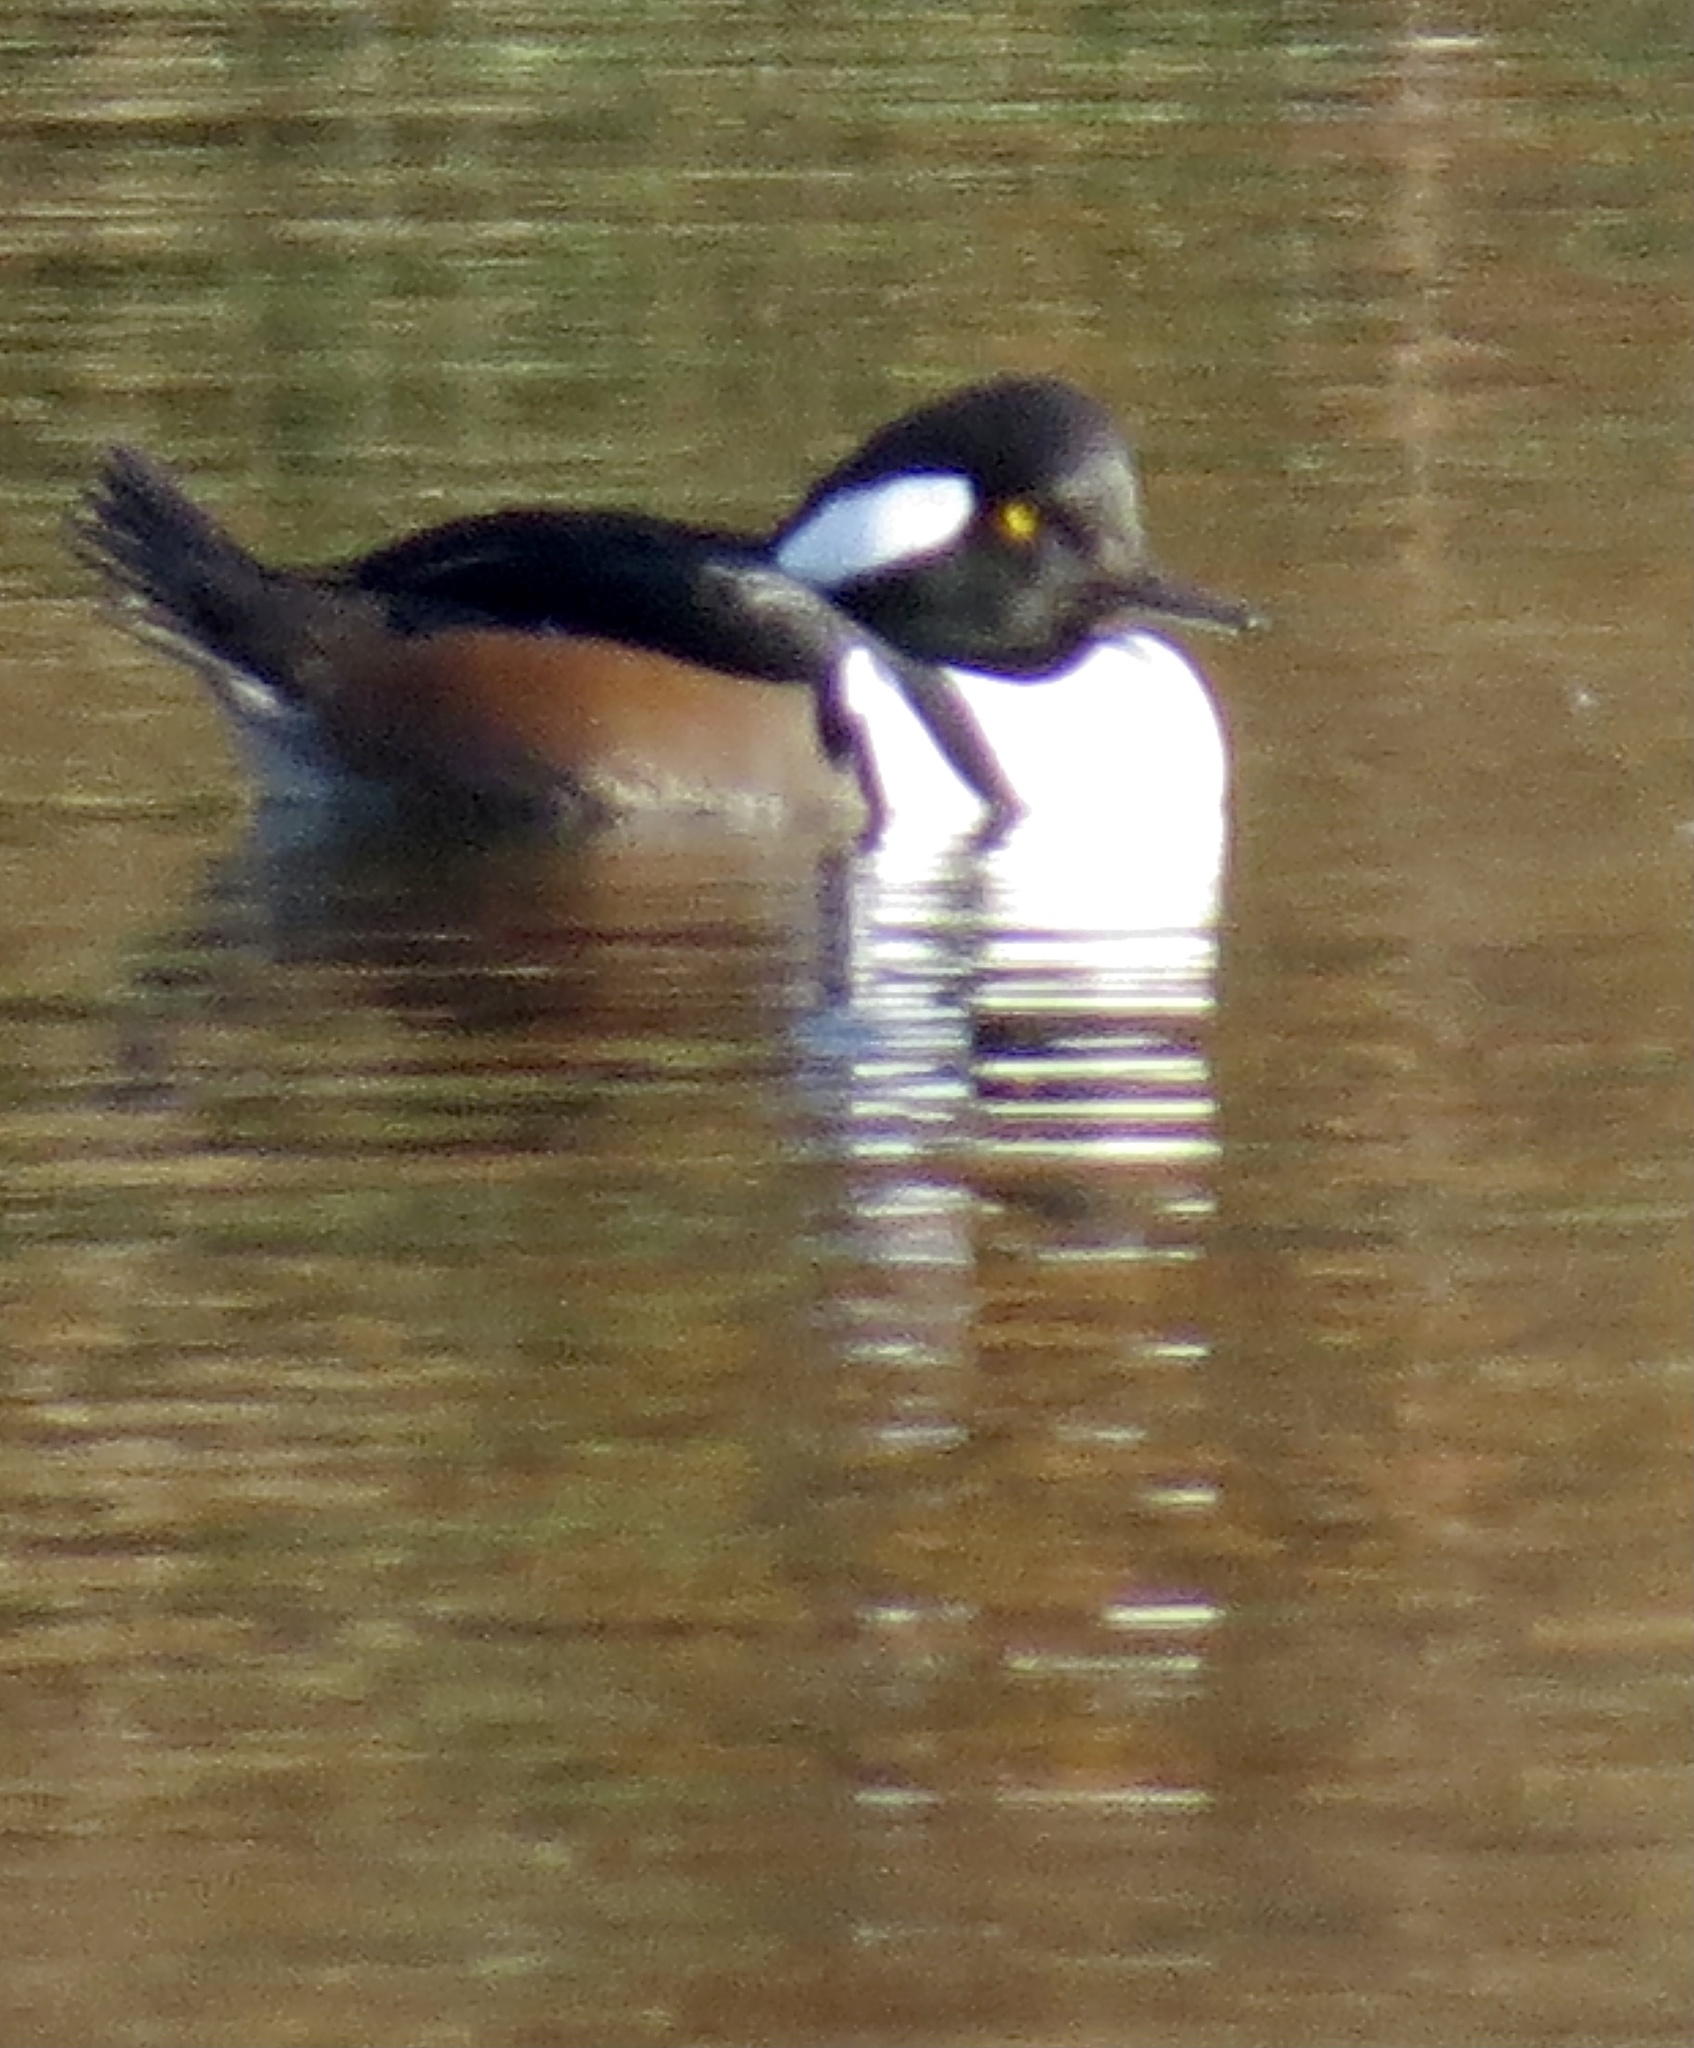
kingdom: Animalia
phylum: Chordata
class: Aves
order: Anseriformes
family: Anatidae
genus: Lophodytes
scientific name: Lophodytes cucullatus
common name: Hooded merganser
